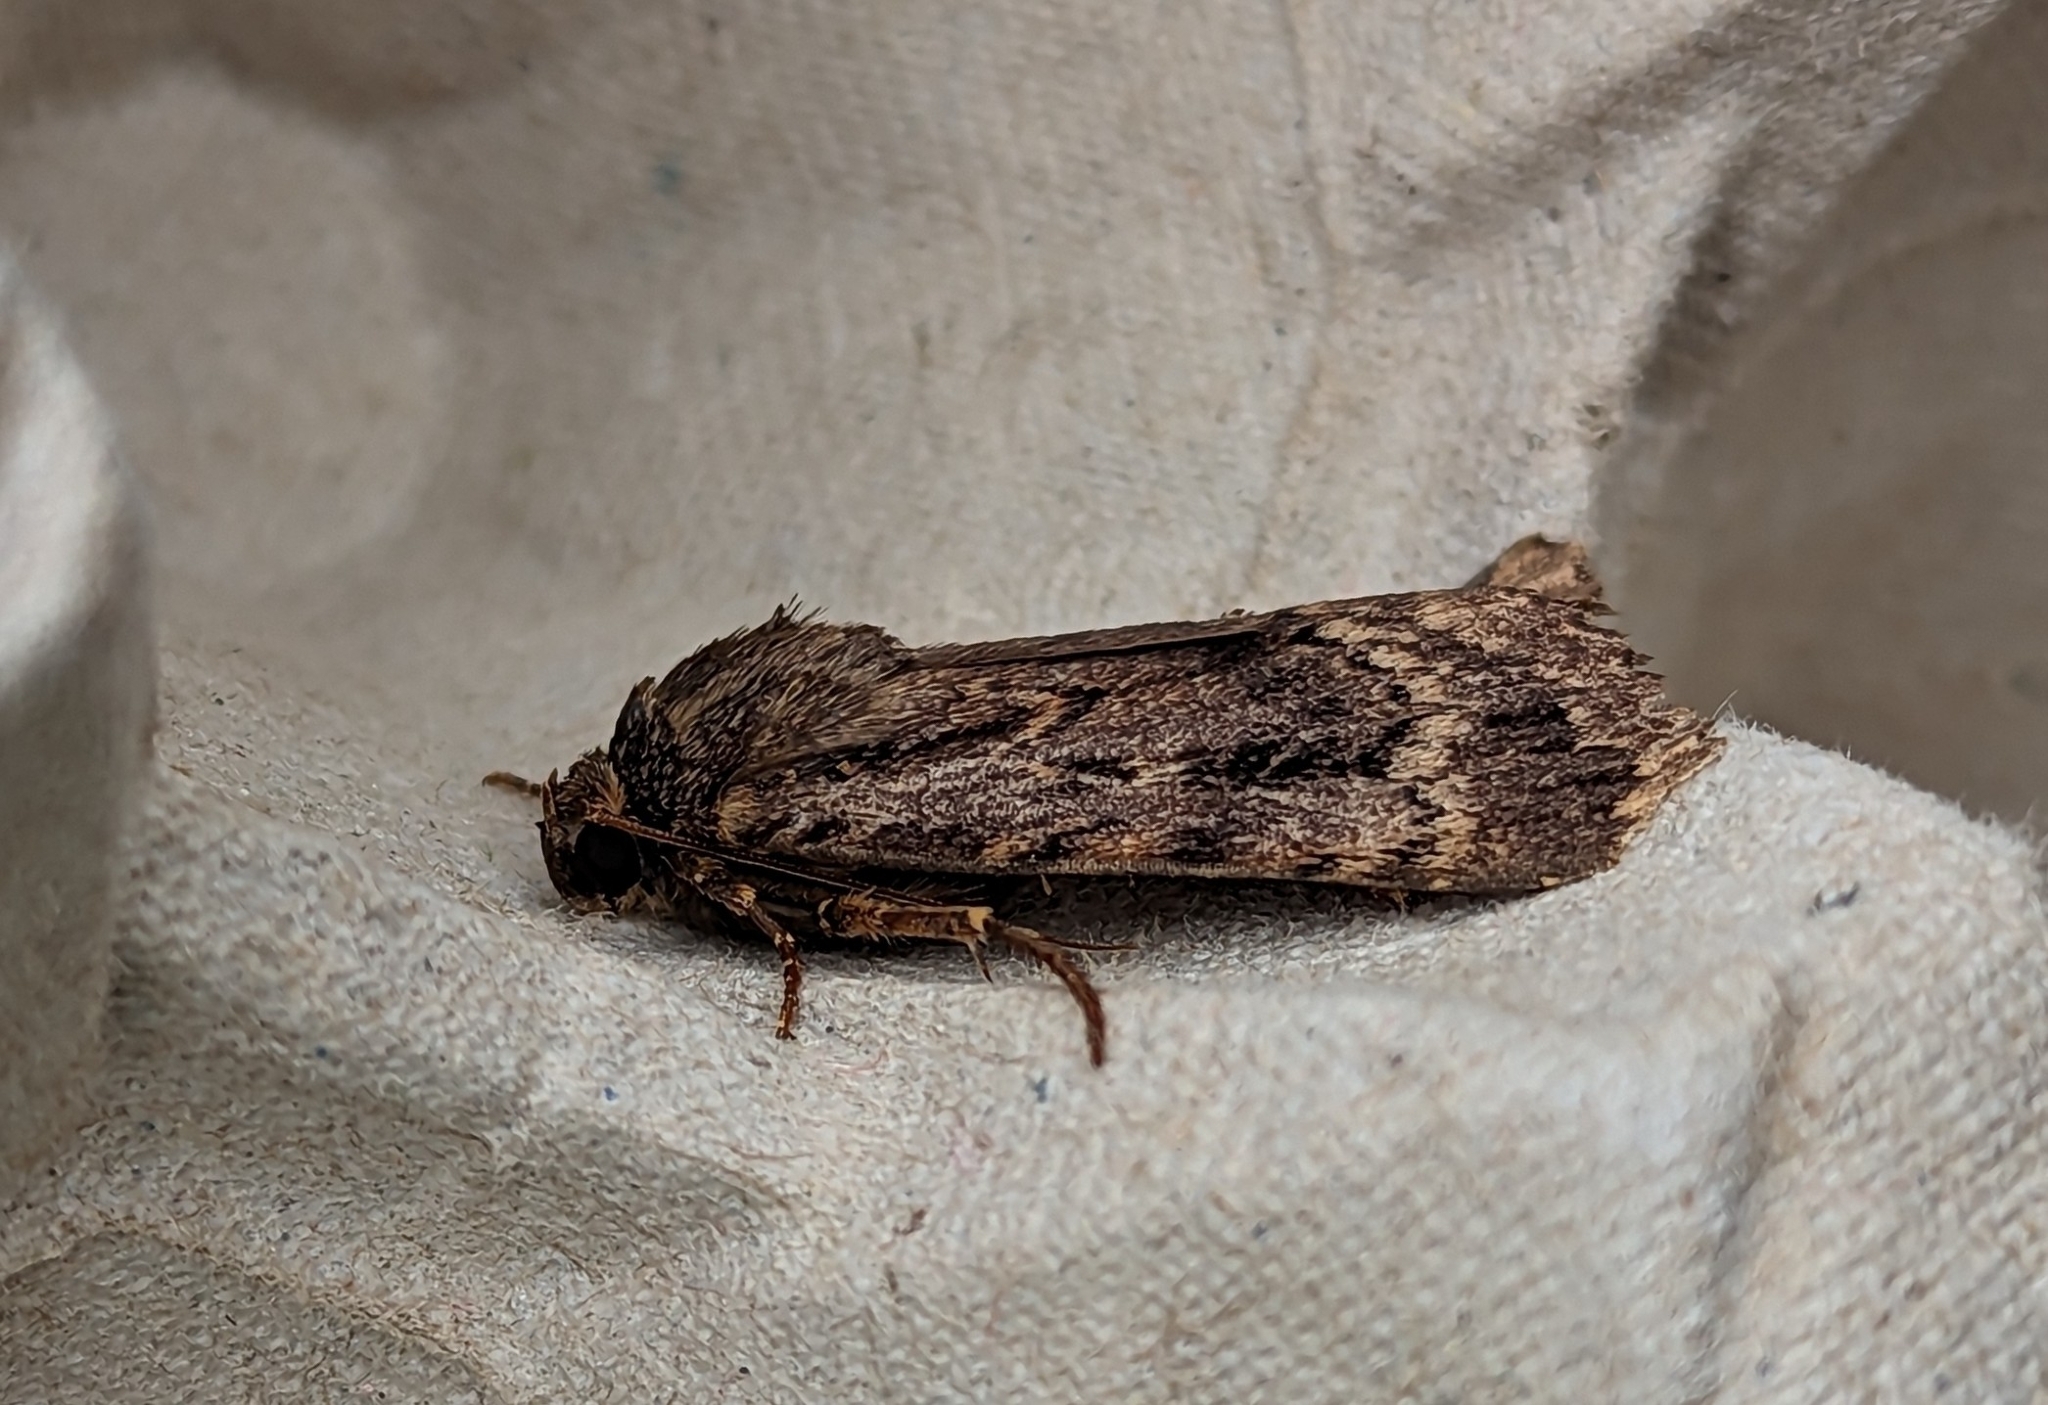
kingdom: Animalia
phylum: Arthropoda
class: Insecta
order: Lepidoptera
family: Noctuidae
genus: Amphipyra
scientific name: Amphipyra pyramidea
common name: Copper underwing
